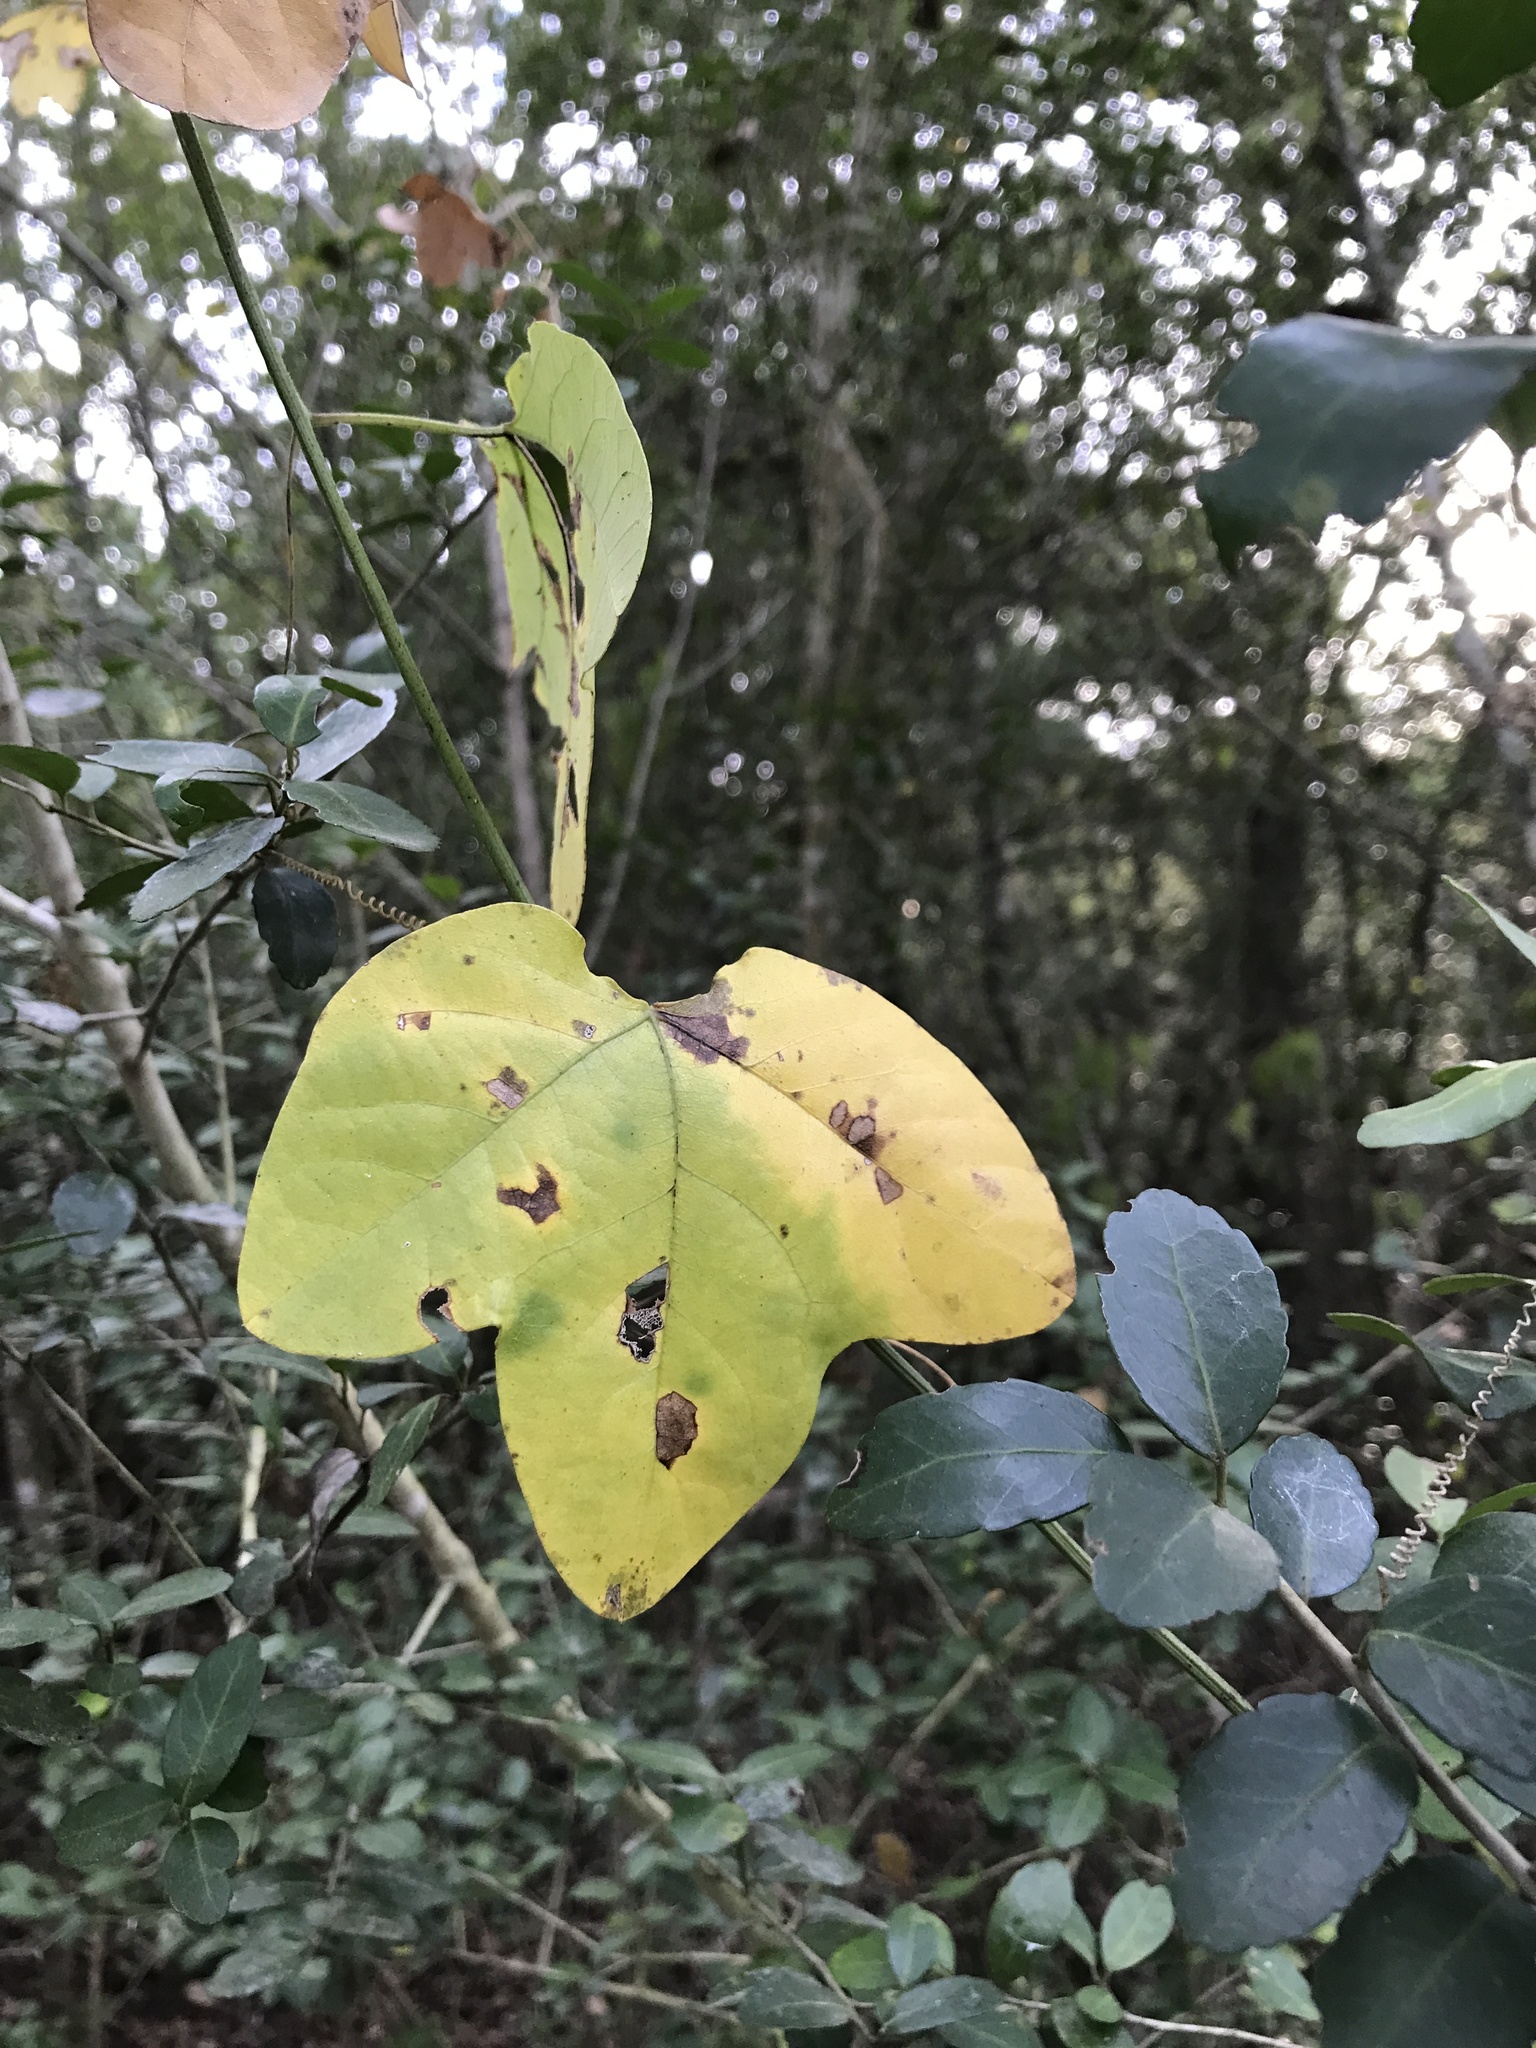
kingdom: Plantae
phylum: Tracheophyta
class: Magnoliopsida
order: Malpighiales
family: Passifloraceae
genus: Passiflora
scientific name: Passiflora lutea
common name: Yellow passionflower
